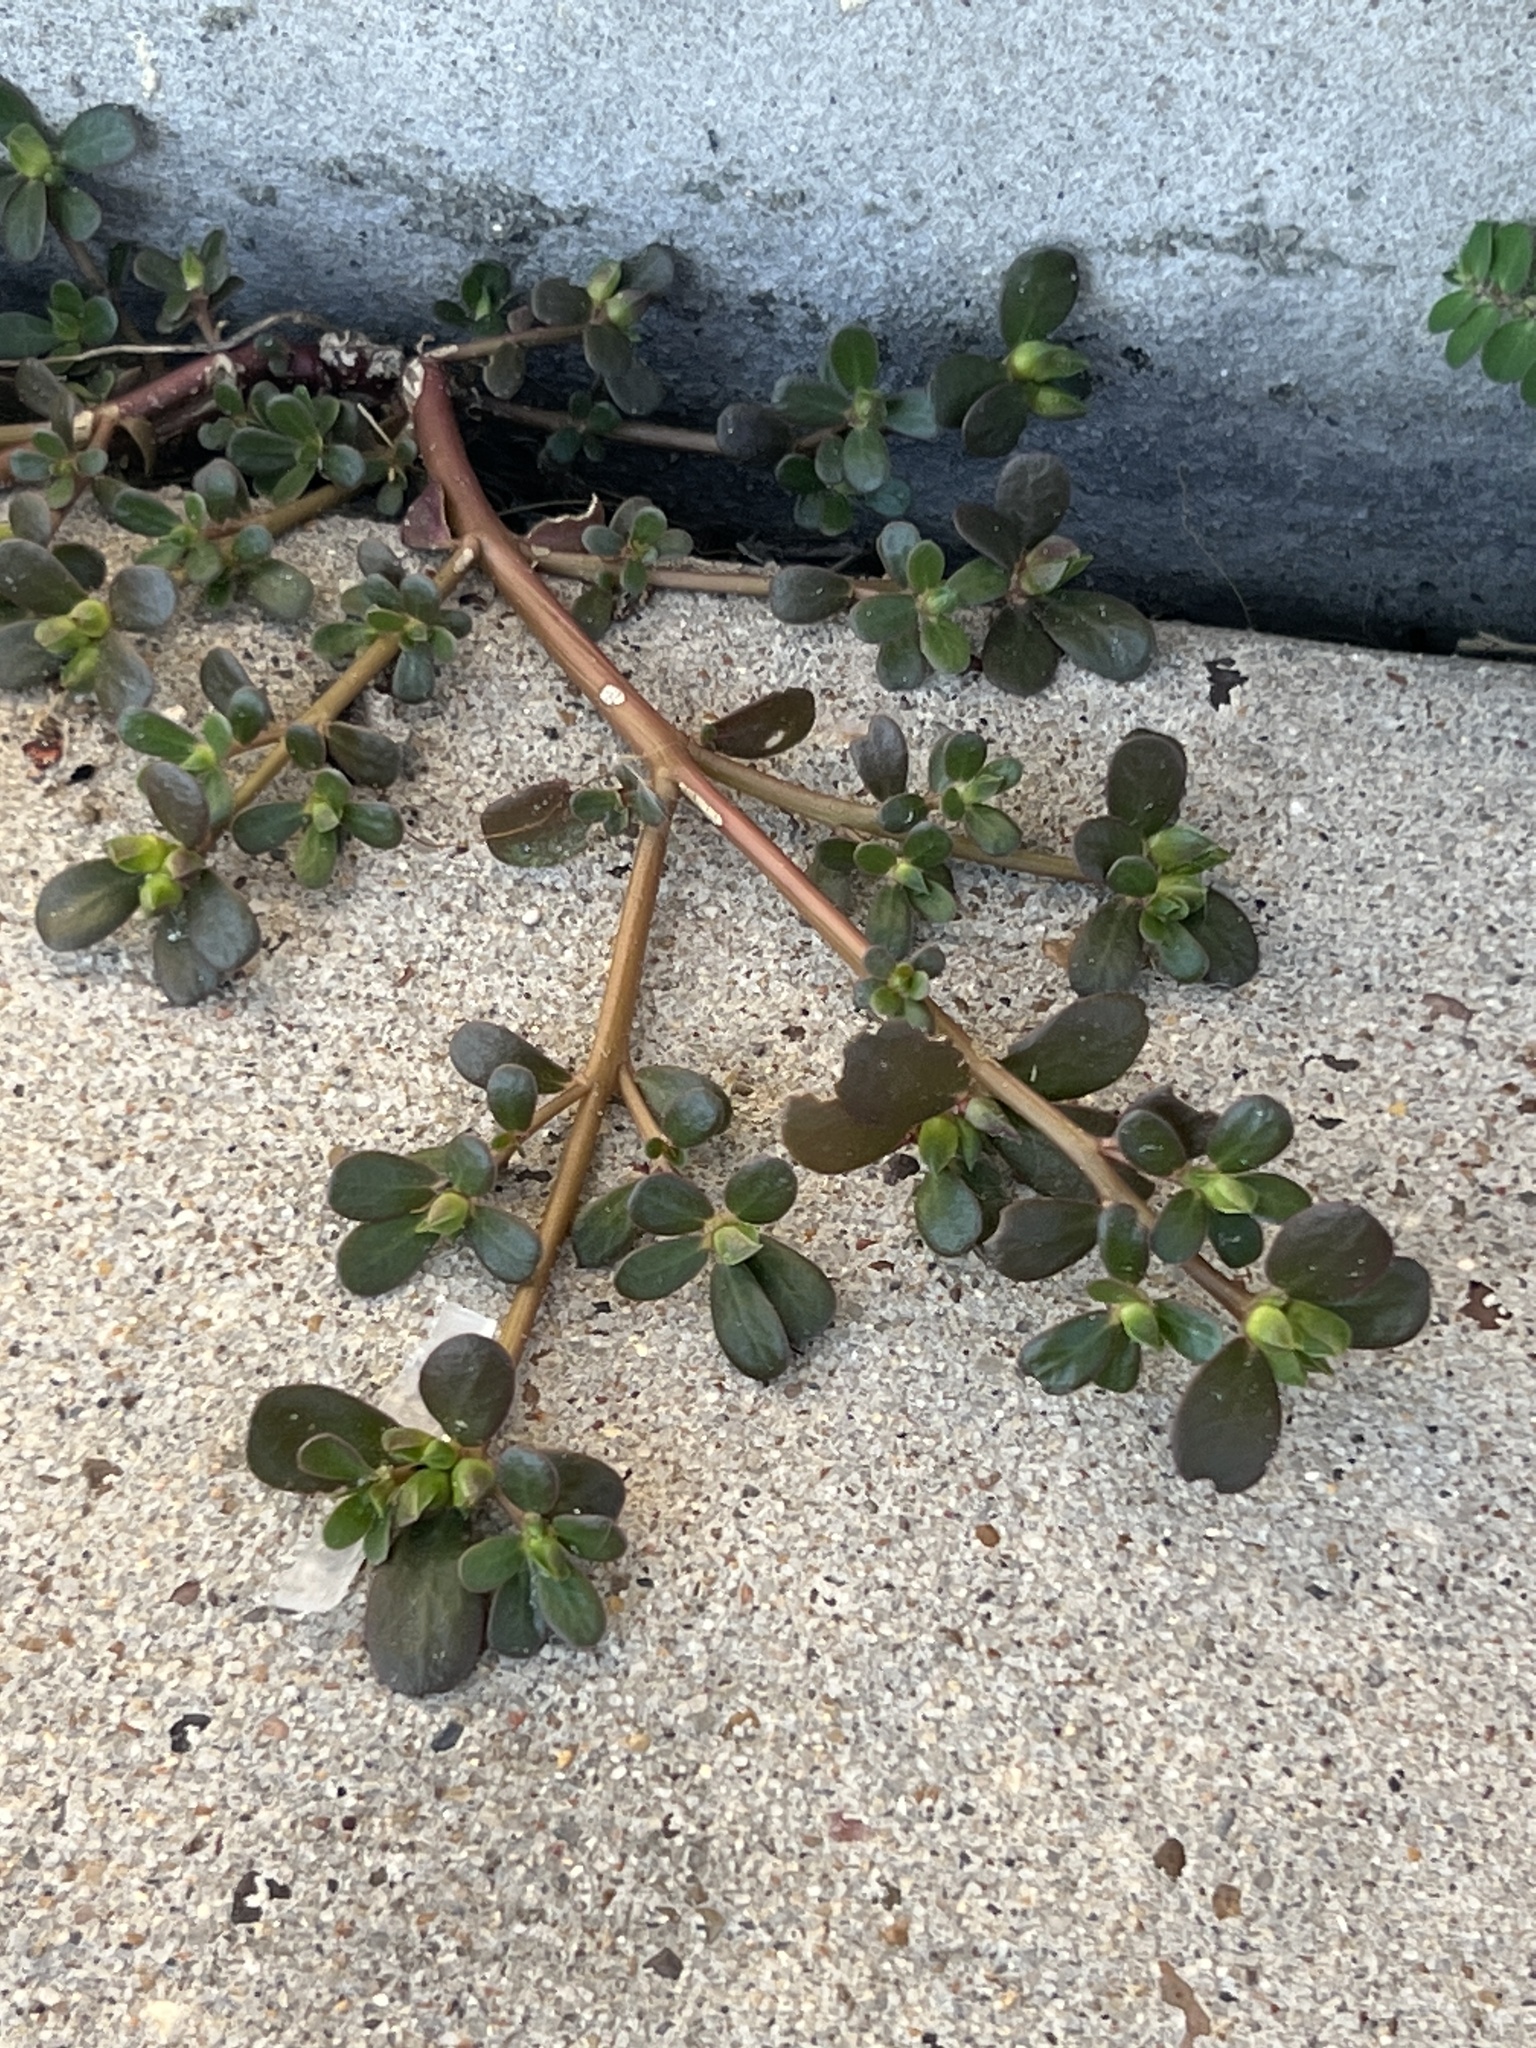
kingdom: Plantae
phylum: Tracheophyta
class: Magnoliopsida
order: Caryophyllales
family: Portulacaceae
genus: Portulaca
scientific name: Portulaca oleracea
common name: Common purslane
